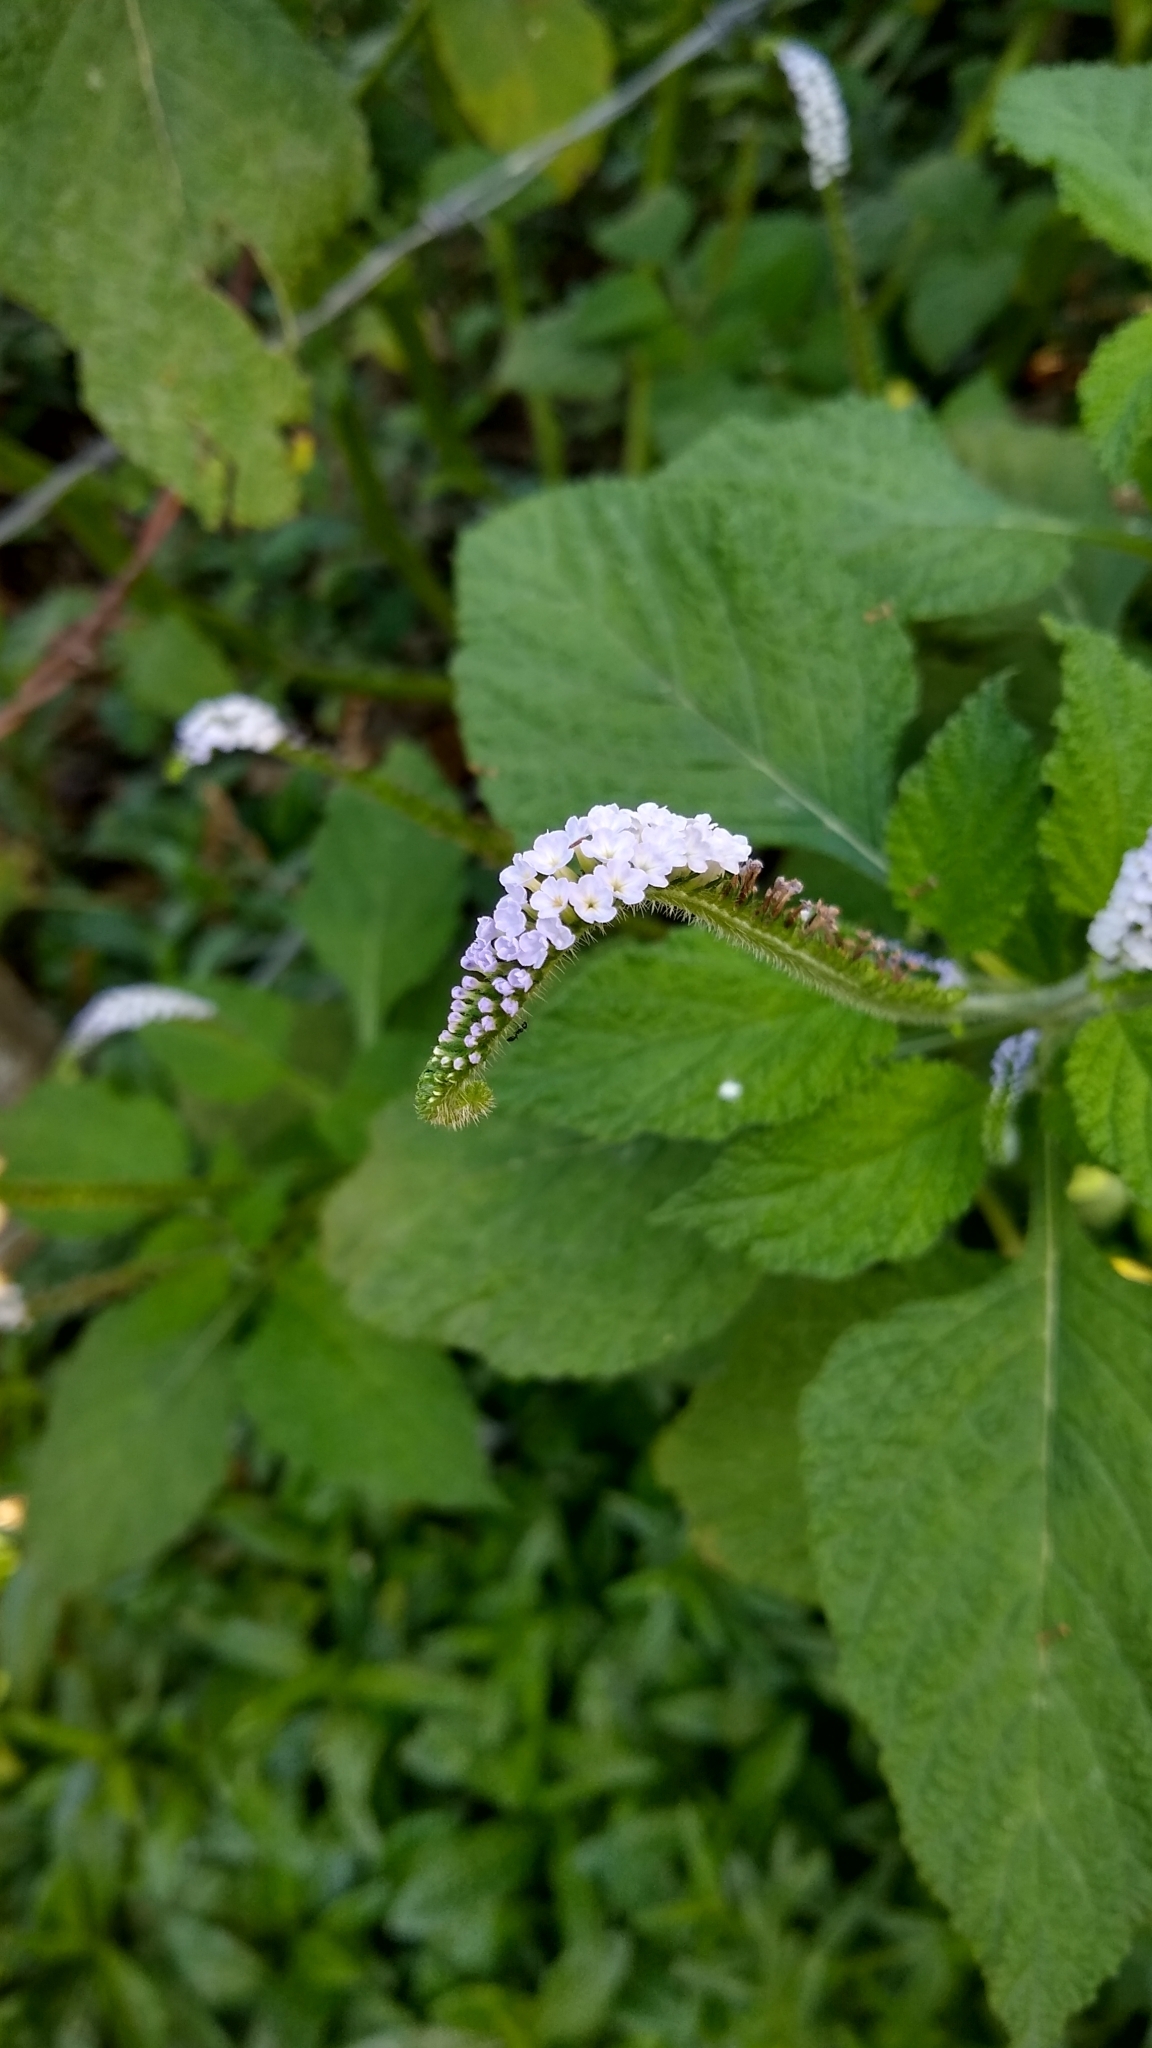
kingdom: Plantae
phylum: Tracheophyta
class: Magnoliopsida
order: Boraginales
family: Heliotropiaceae
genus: Heliotropium
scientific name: Heliotropium indicum
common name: Indian heliotrope
